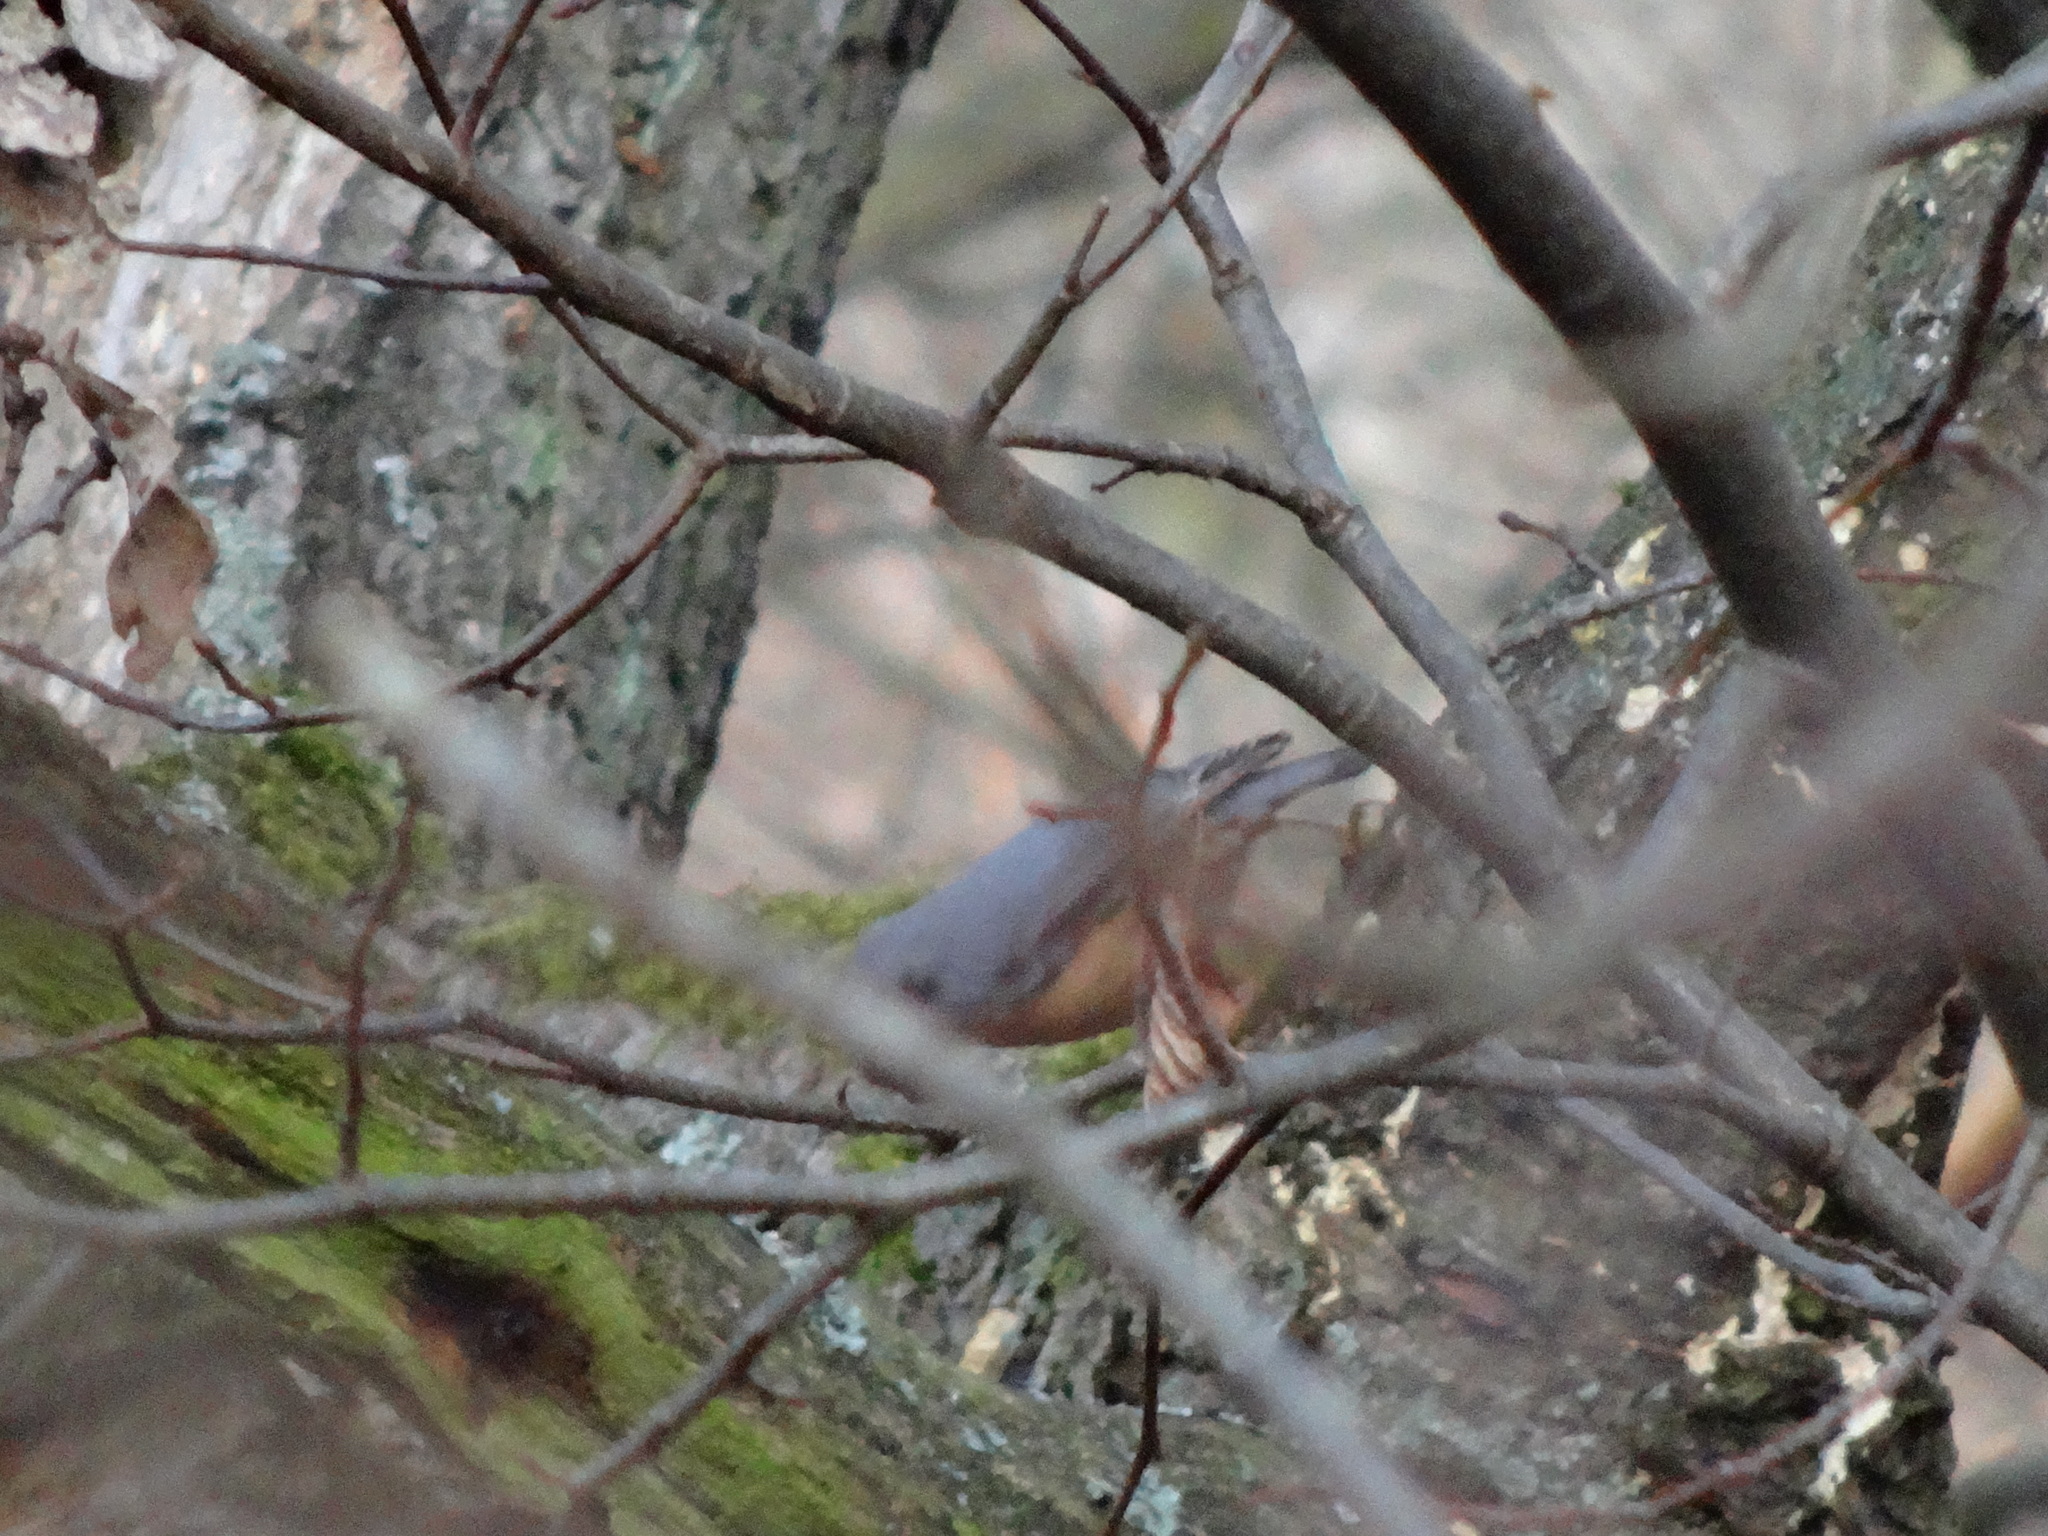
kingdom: Animalia
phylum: Chordata
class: Aves
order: Passeriformes
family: Sittidae
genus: Sitta
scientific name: Sitta europaea
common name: Eurasian nuthatch
